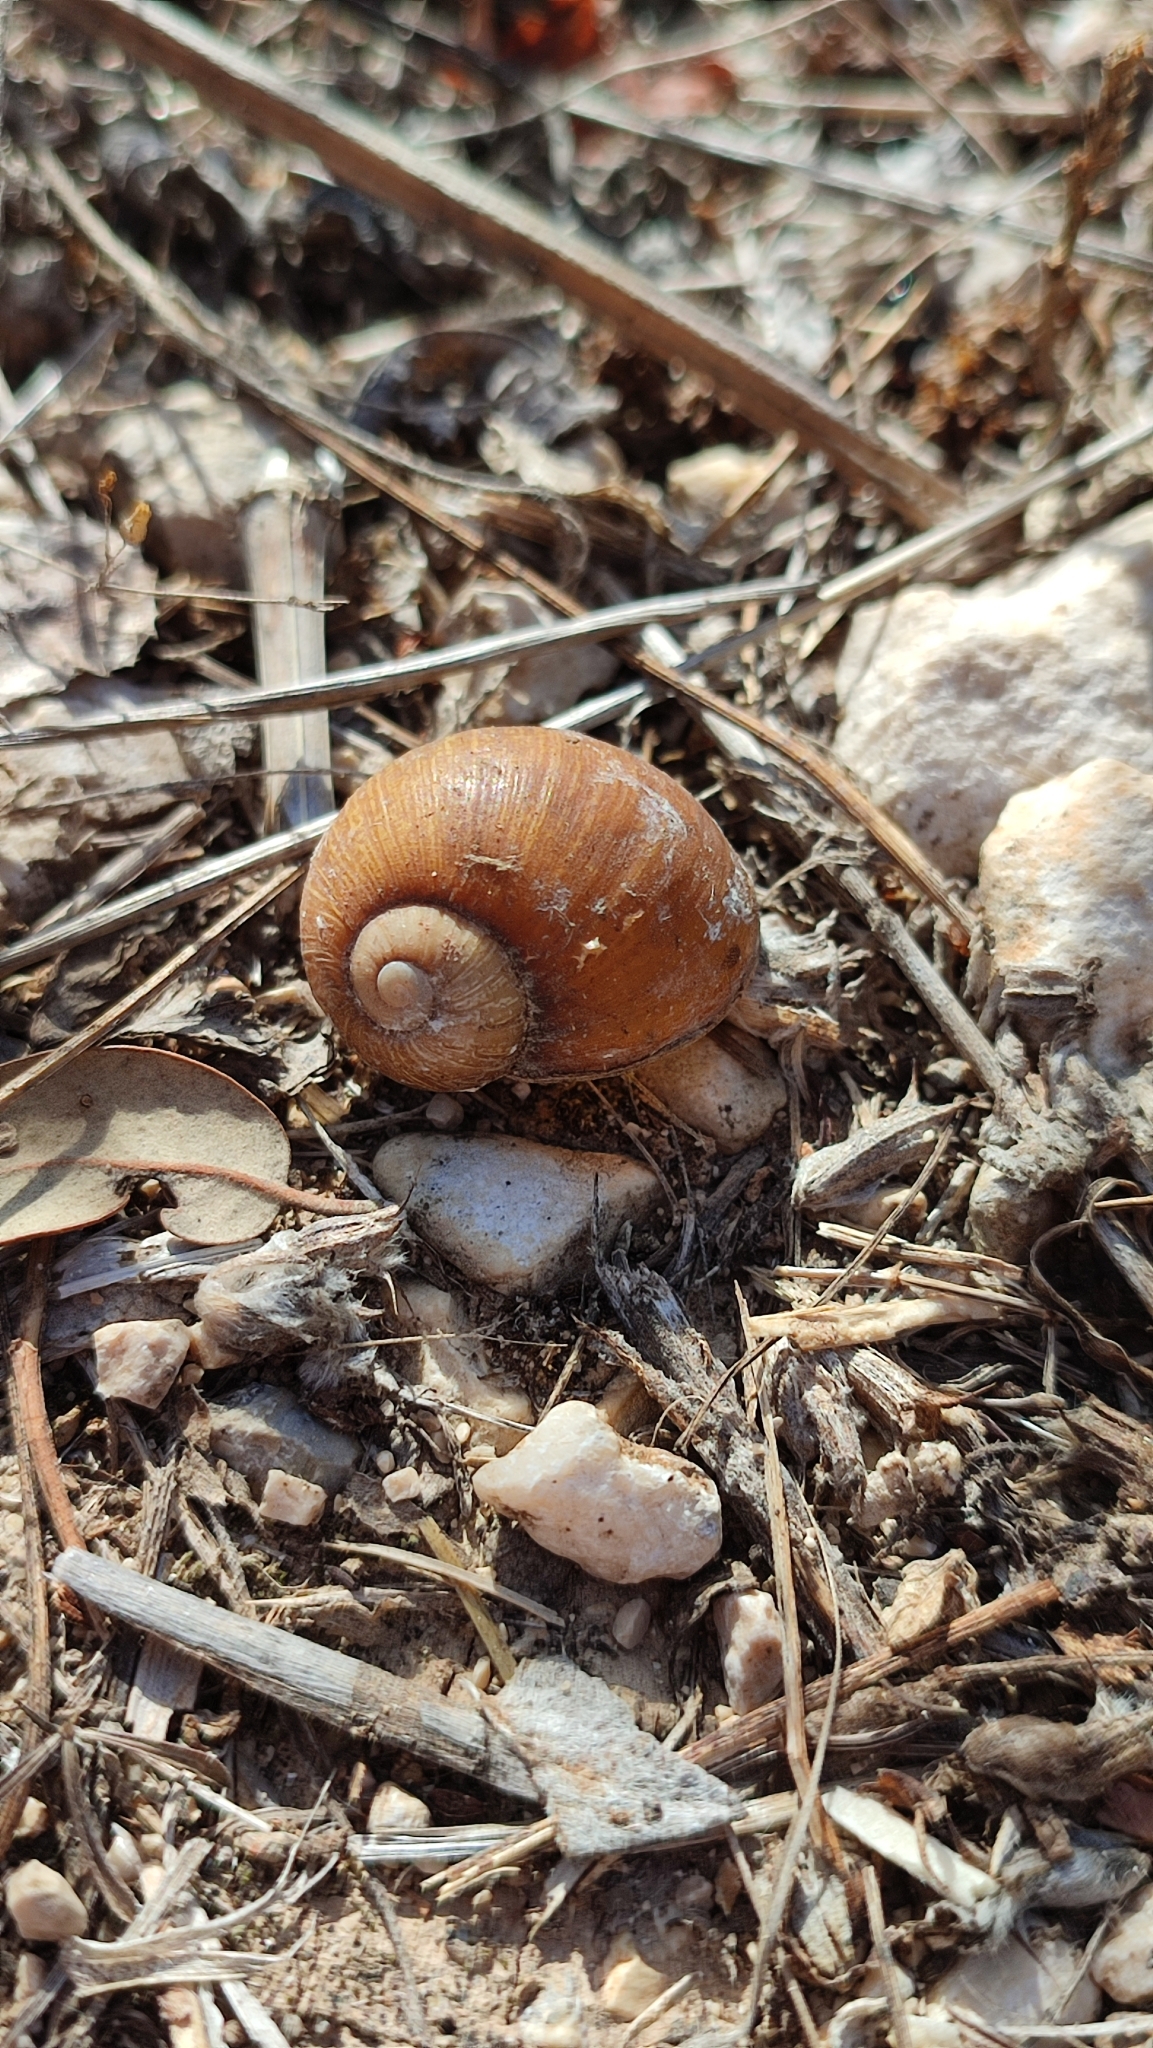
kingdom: Animalia
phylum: Mollusca
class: Gastropoda
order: Stylommatophora
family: Helicidae
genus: Cantareus
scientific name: Cantareus apertus
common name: Green gardensnail
